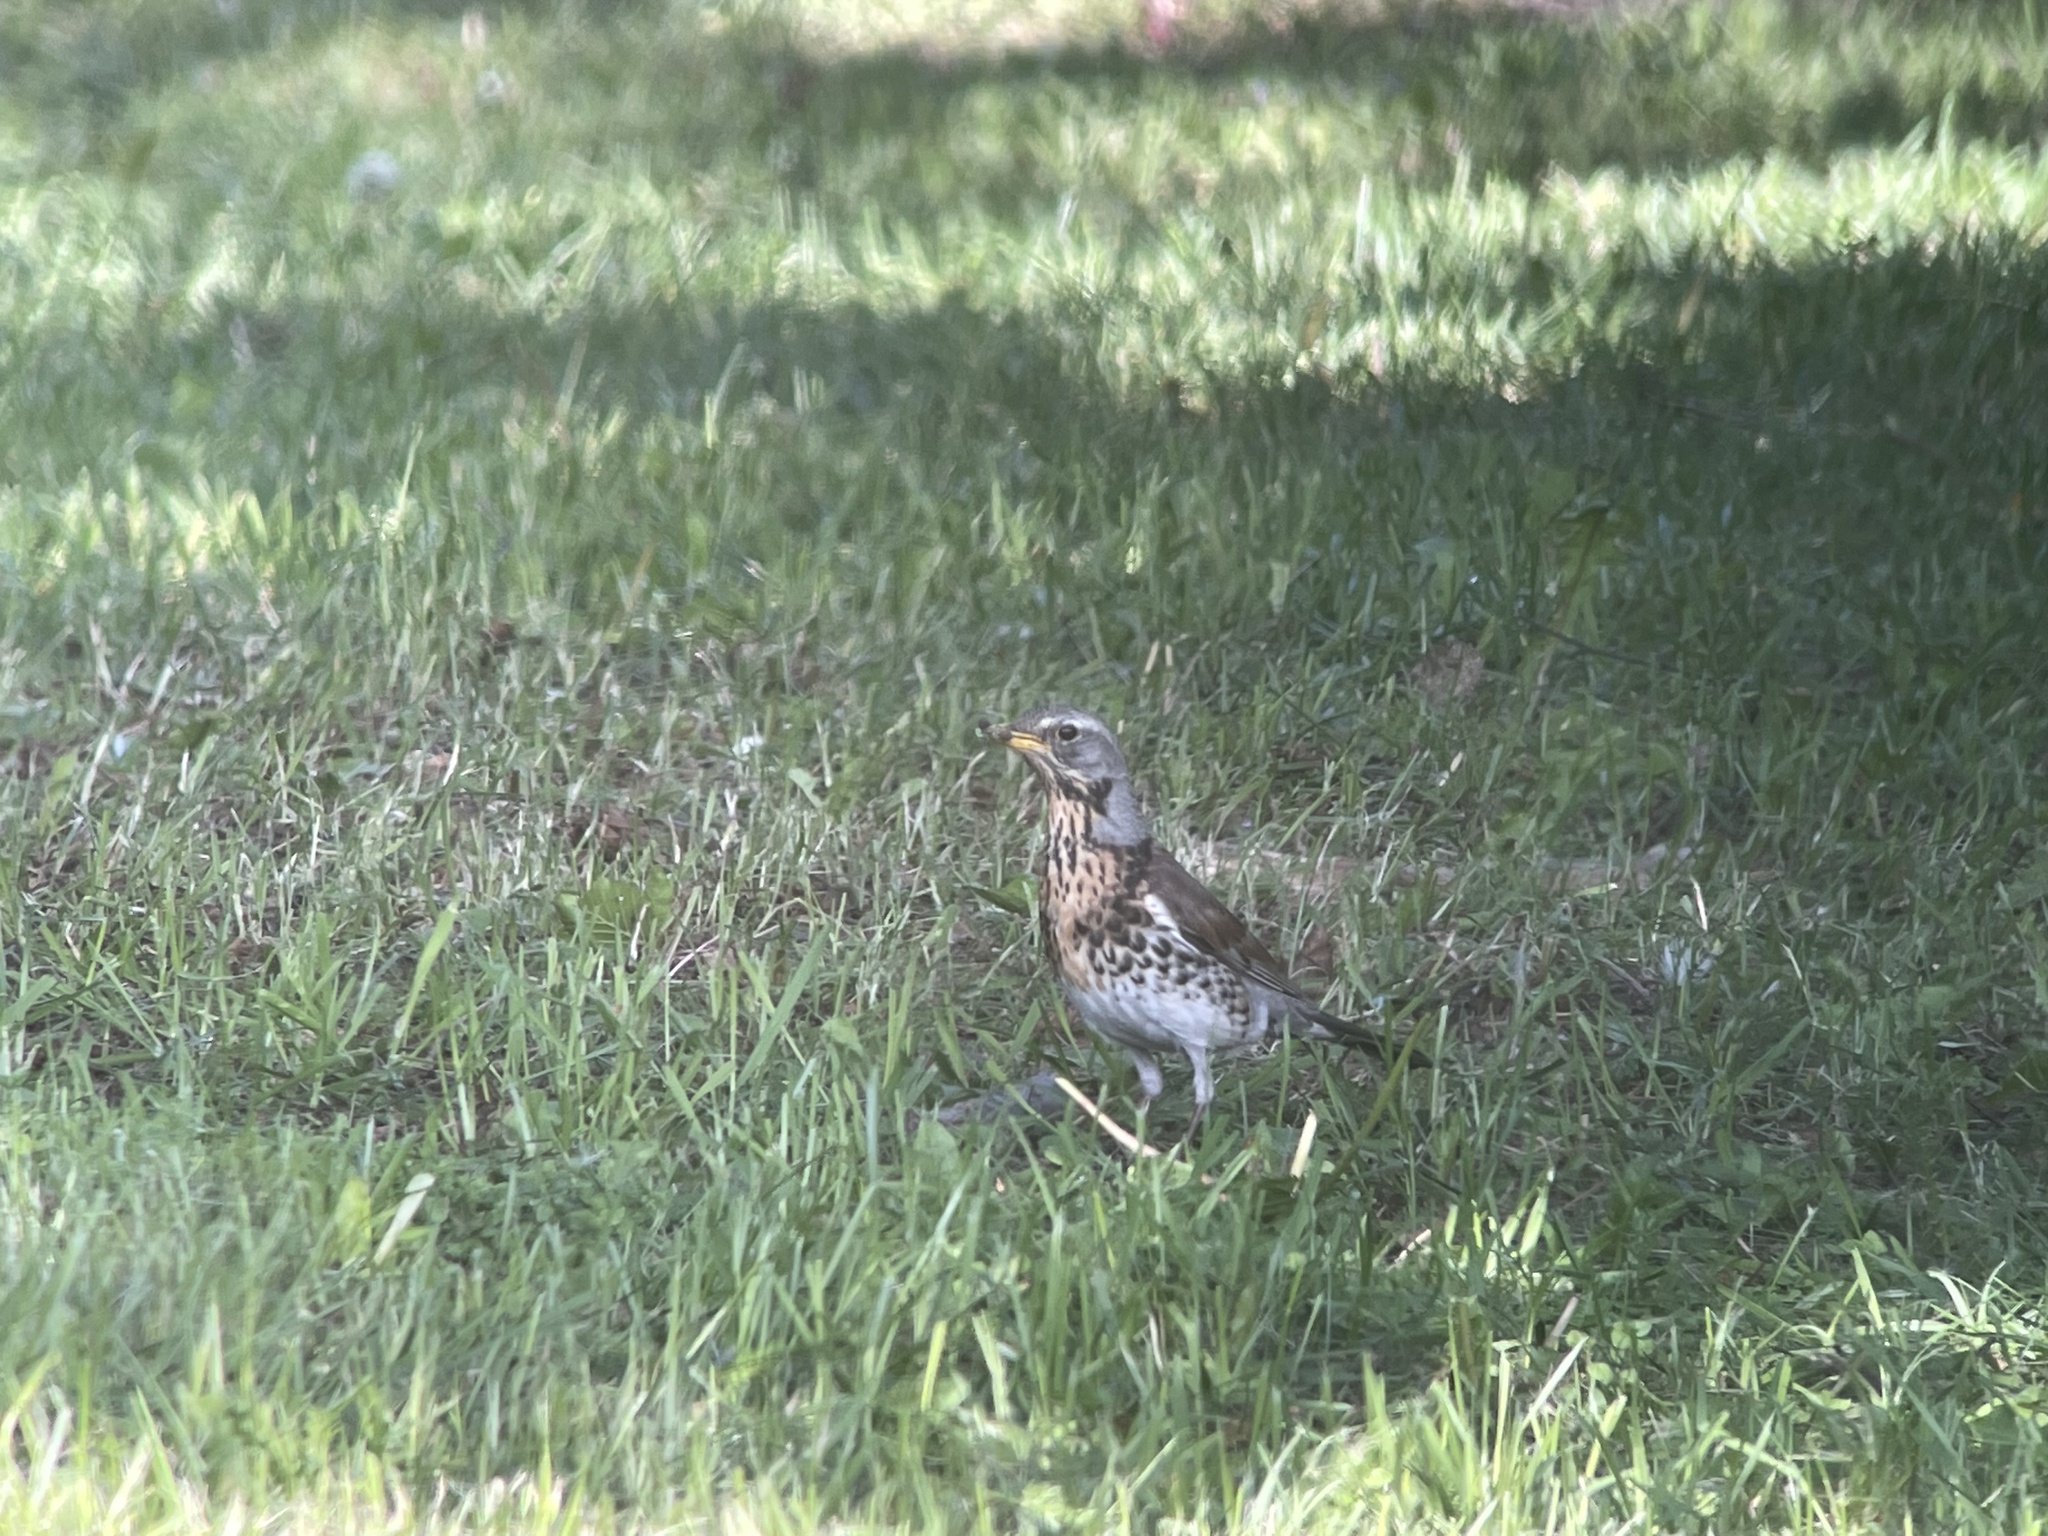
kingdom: Animalia
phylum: Chordata
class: Aves
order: Passeriformes
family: Turdidae
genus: Turdus
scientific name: Turdus pilaris
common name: Fieldfare
